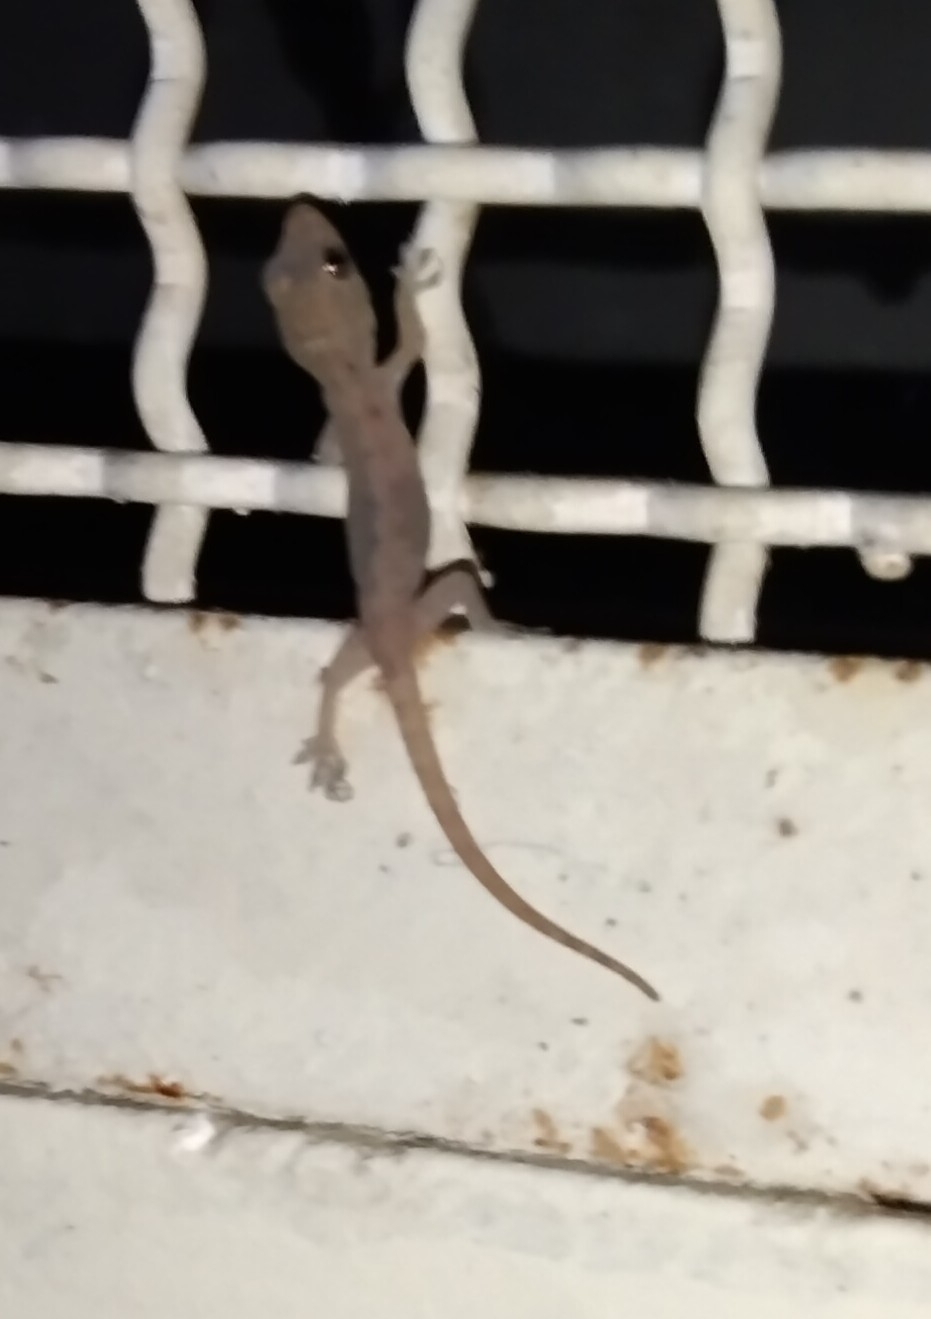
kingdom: Animalia
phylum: Chordata
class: Squamata
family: Gekkonidae
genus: Hemidactylus
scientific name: Hemidactylus frenatus
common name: Common house gecko
